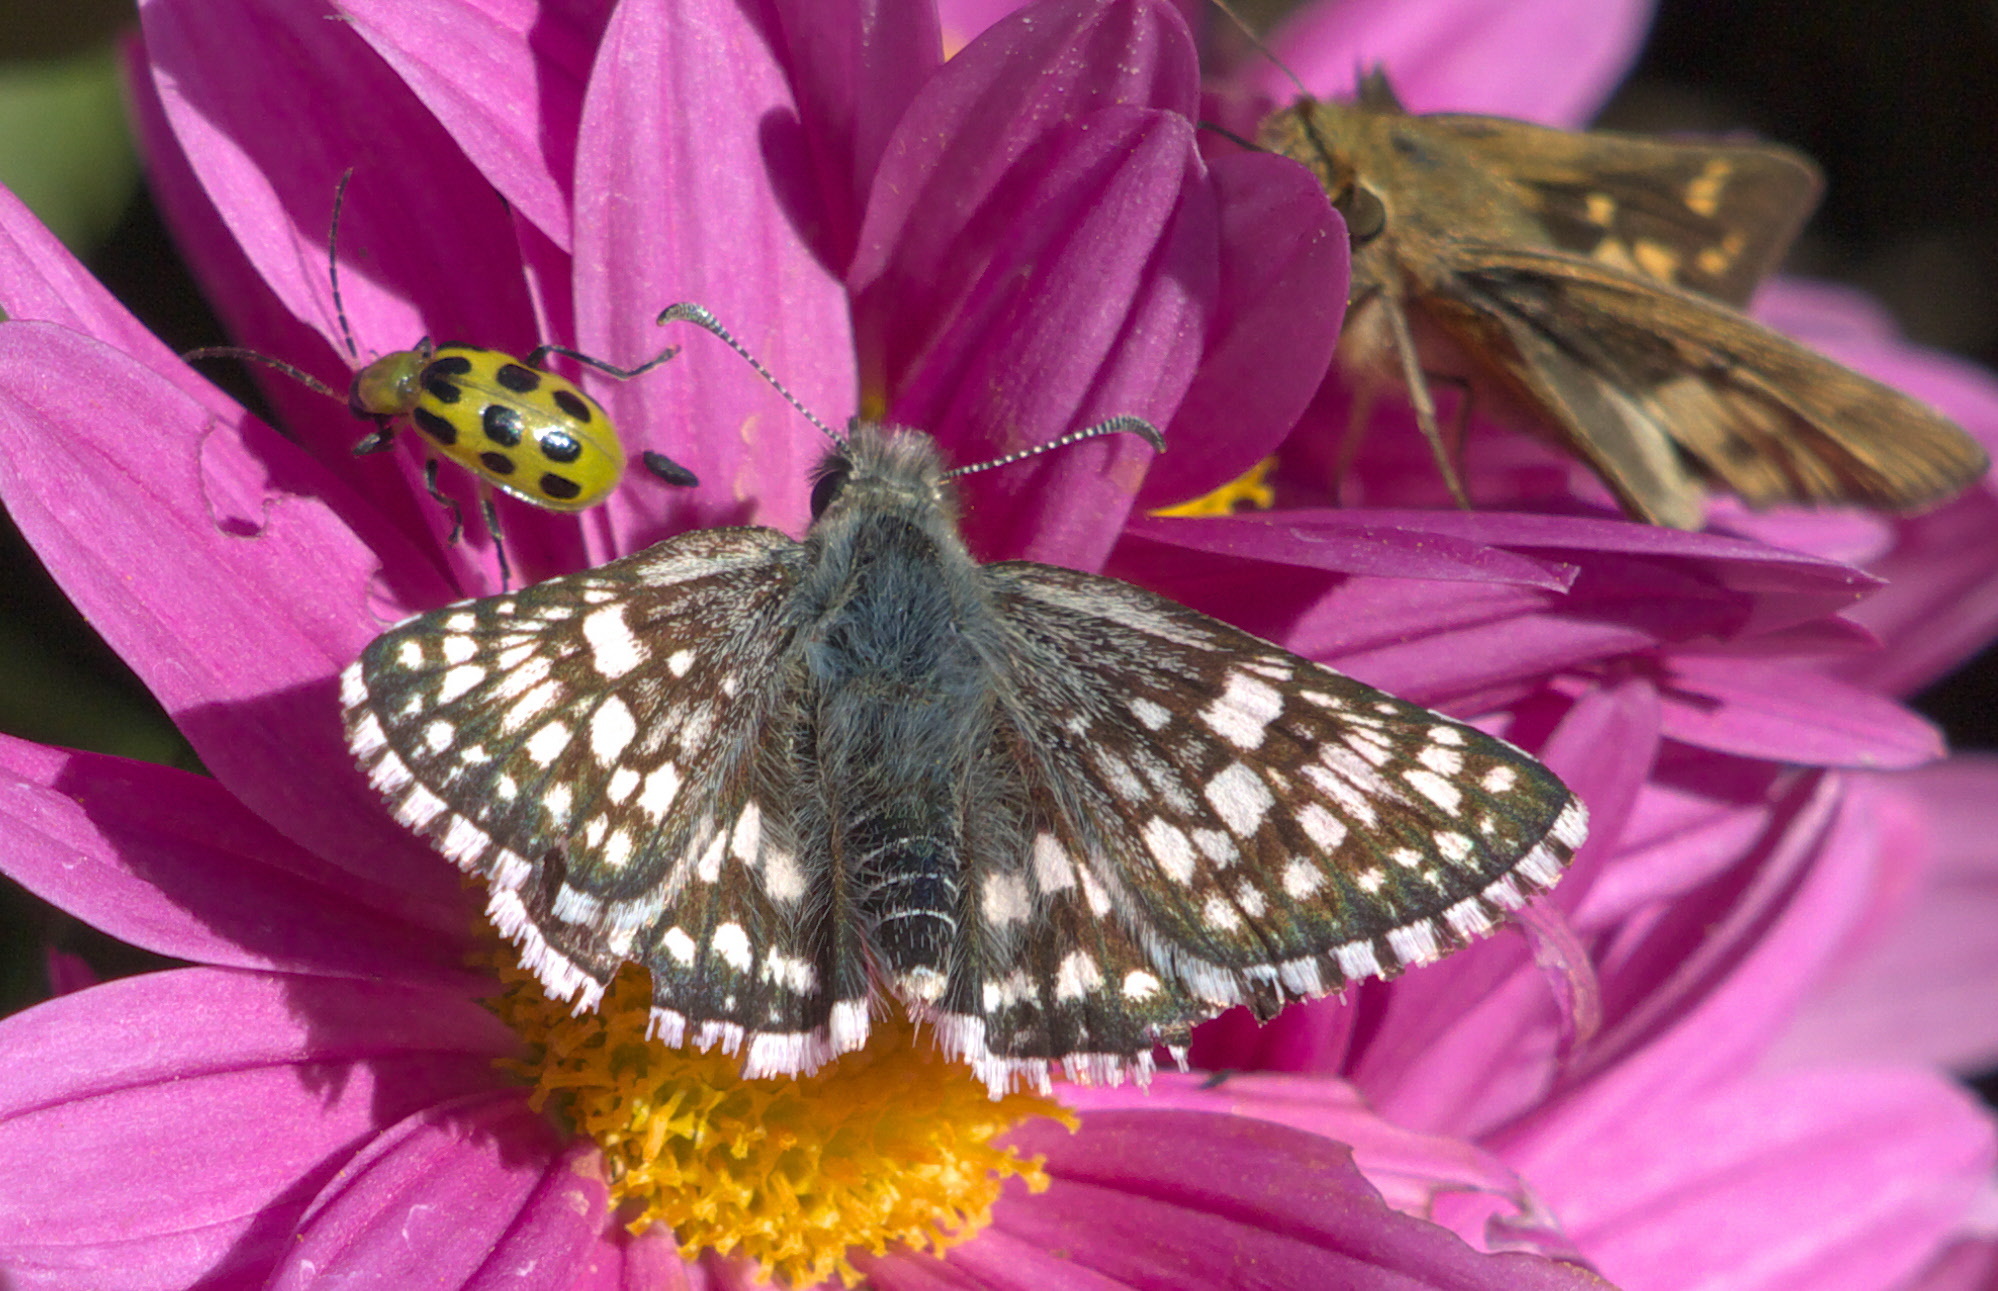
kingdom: Animalia
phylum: Arthropoda
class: Insecta
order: Lepidoptera
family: Hesperiidae
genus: Burnsius
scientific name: Burnsius communis
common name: Common checkered-skipper
